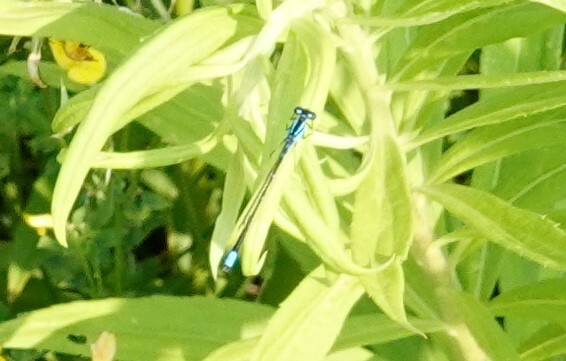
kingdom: Animalia
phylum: Arthropoda
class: Insecta
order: Odonata
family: Coenagrionidae
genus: Enallagma
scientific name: Enallagma geminatum
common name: Skimming bluet
